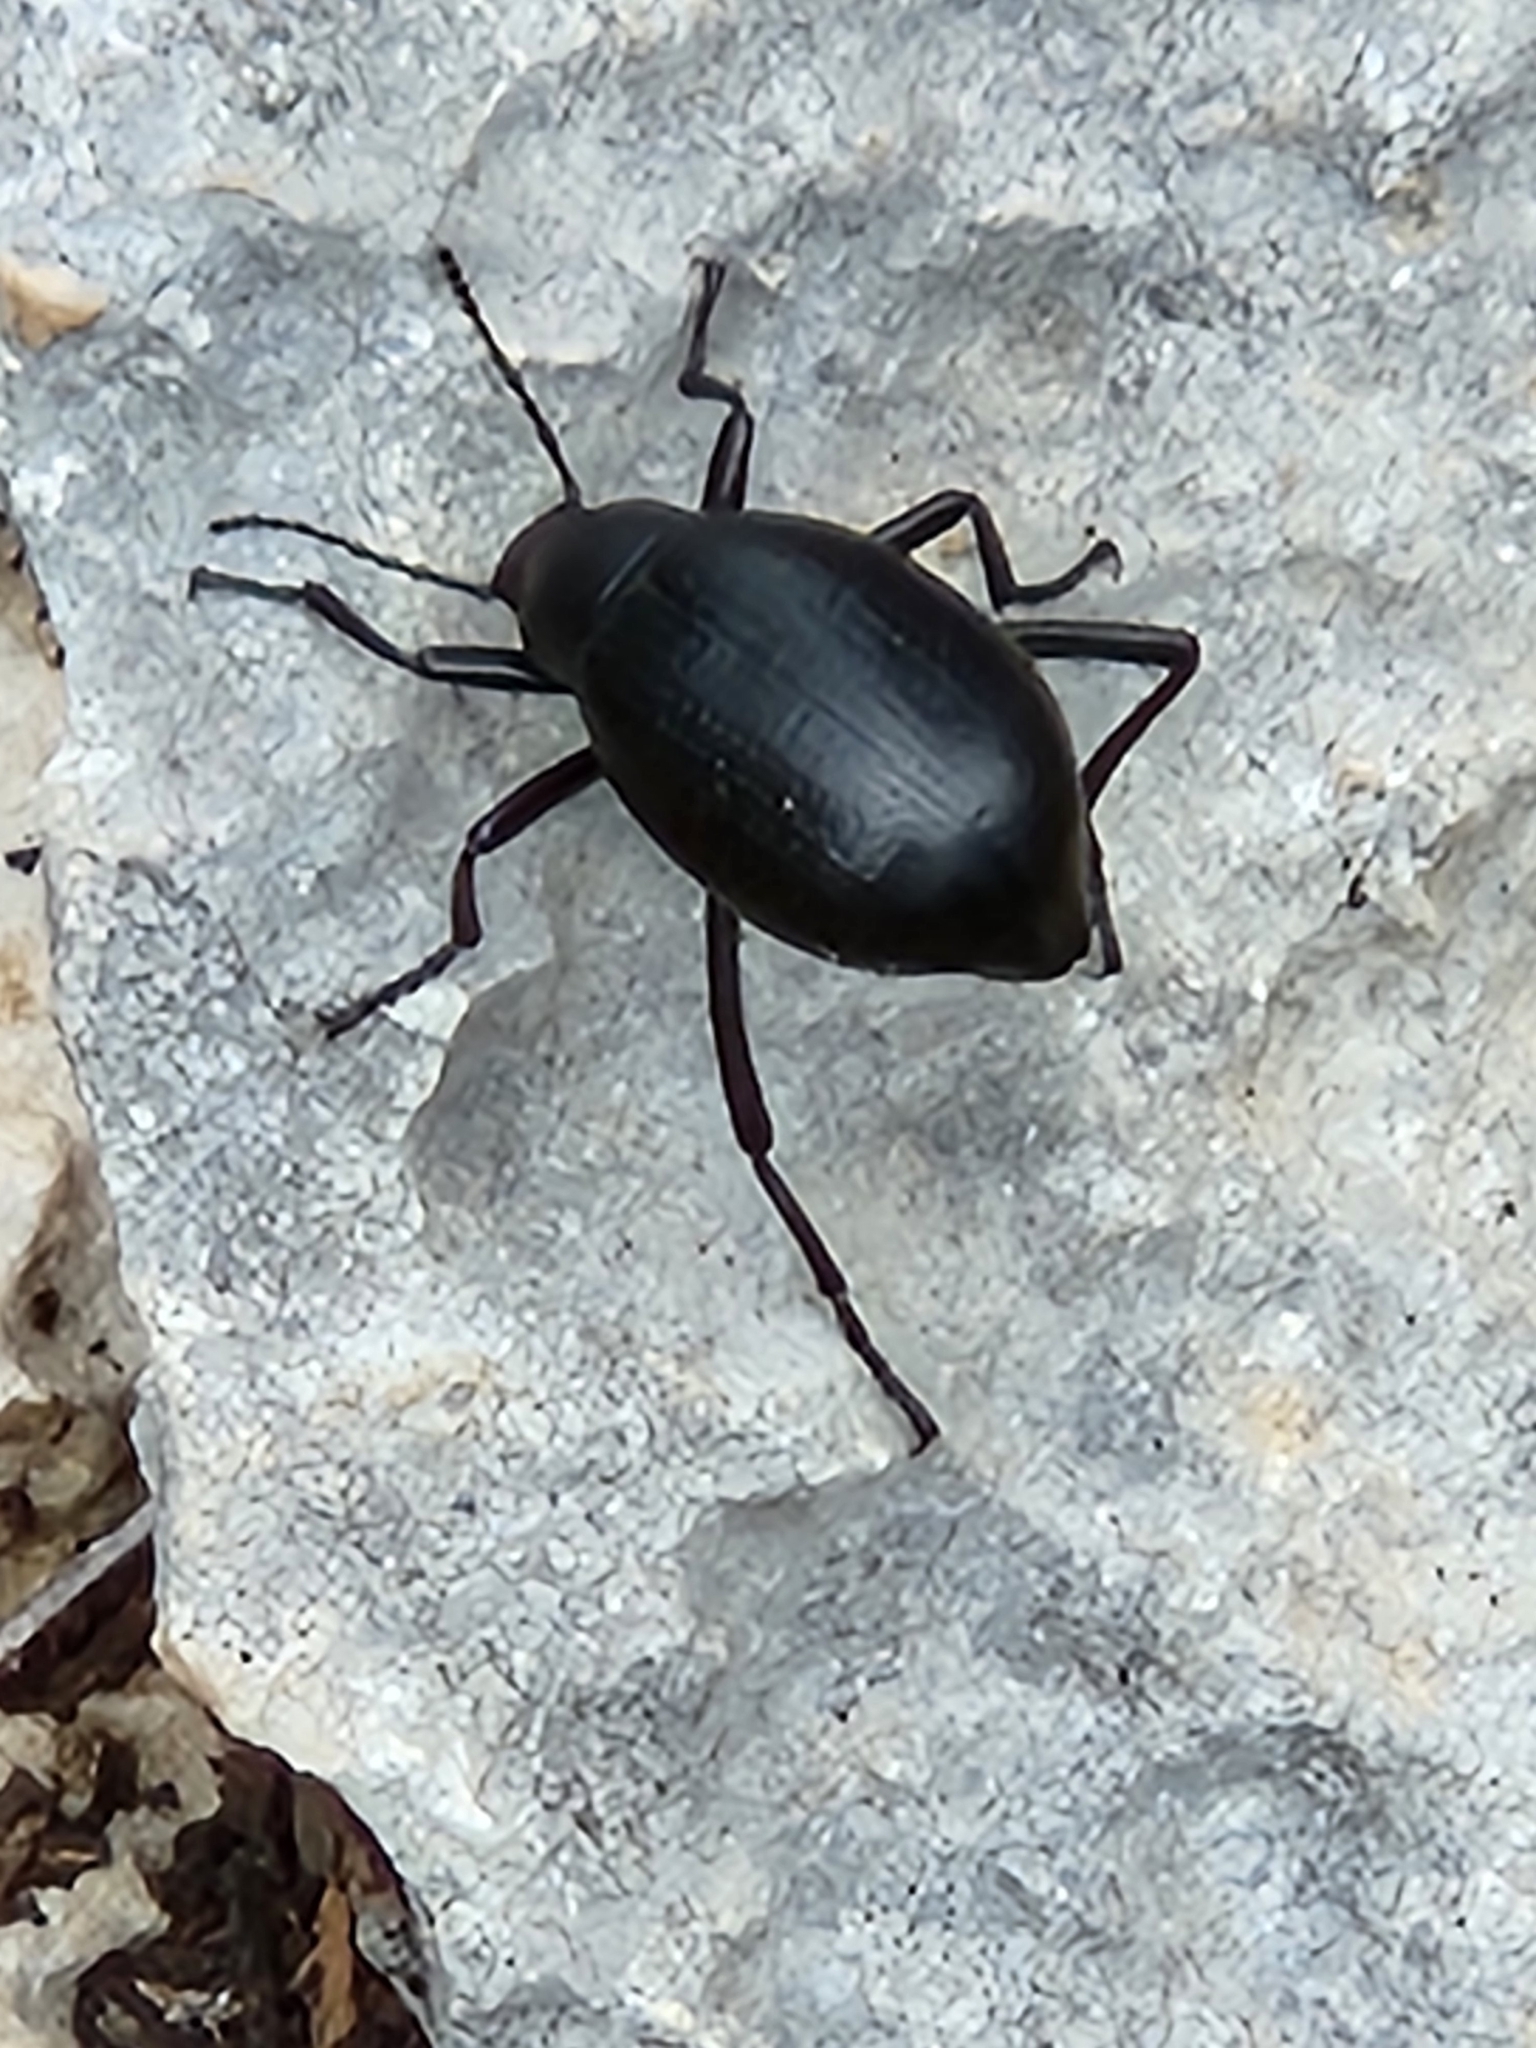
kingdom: Animalia
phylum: Arthropoda
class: Insecta
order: Coleoptera
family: Tenebrionidae
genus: Eleodes
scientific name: Eleodes goryi
